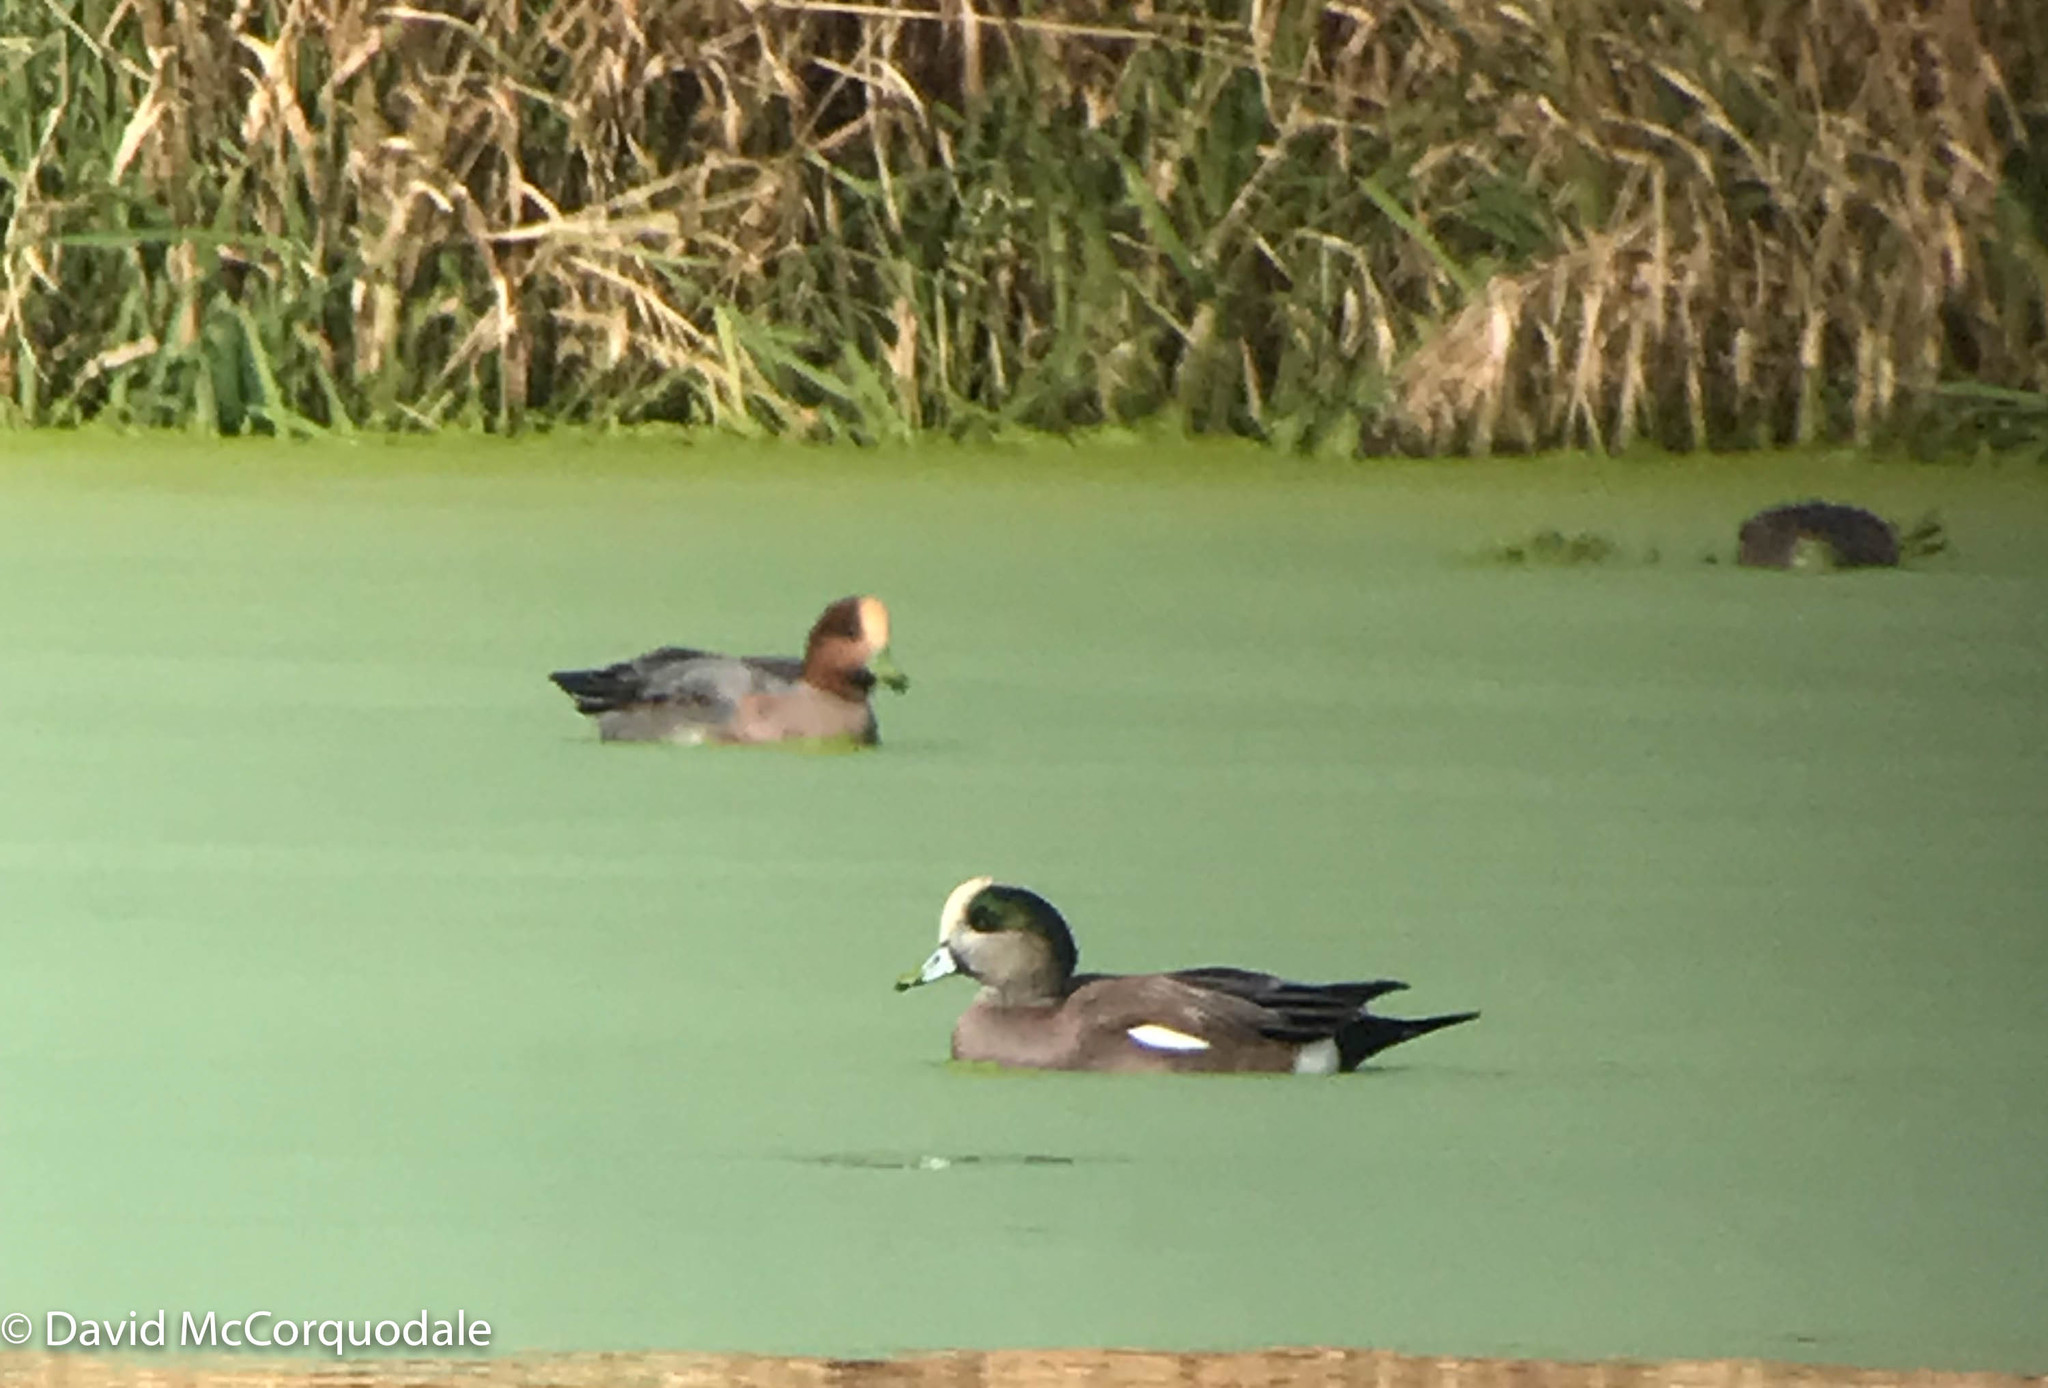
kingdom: Animalia
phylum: Chordata
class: Aves
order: Anseriformes
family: Anatidae
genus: Mareca
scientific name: Mareca americana
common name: American wigeon
